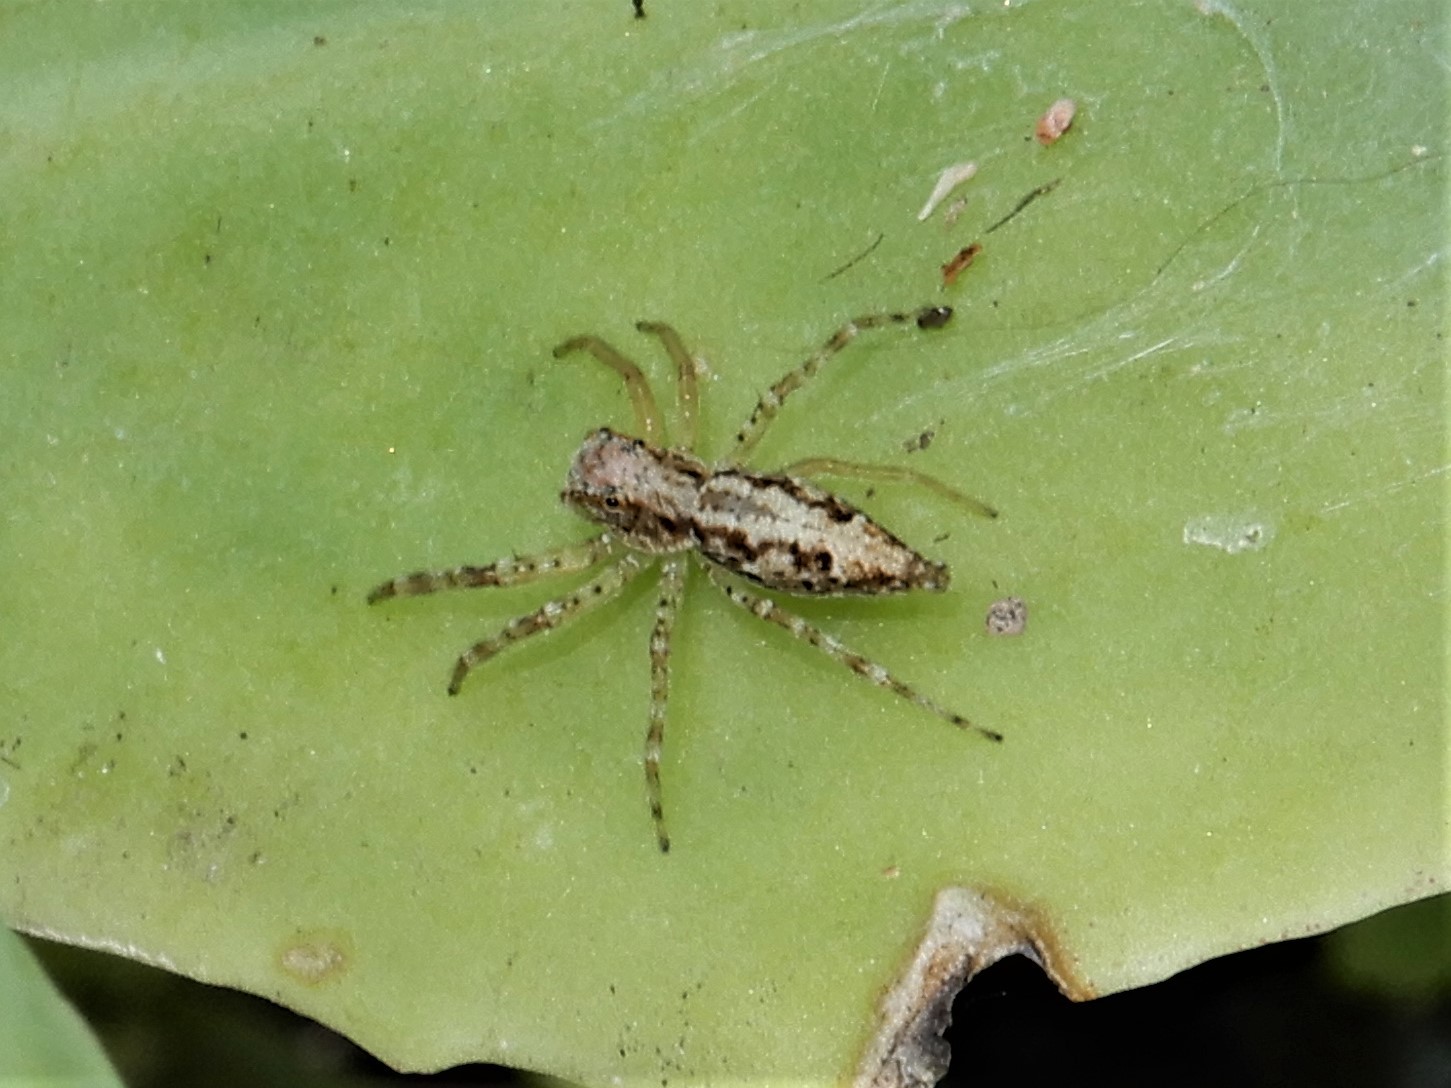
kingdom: Animalia
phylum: Arthropoda
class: Arachnida
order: Araneae
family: Salticidae
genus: Helpis
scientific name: Helpis minitabunda
